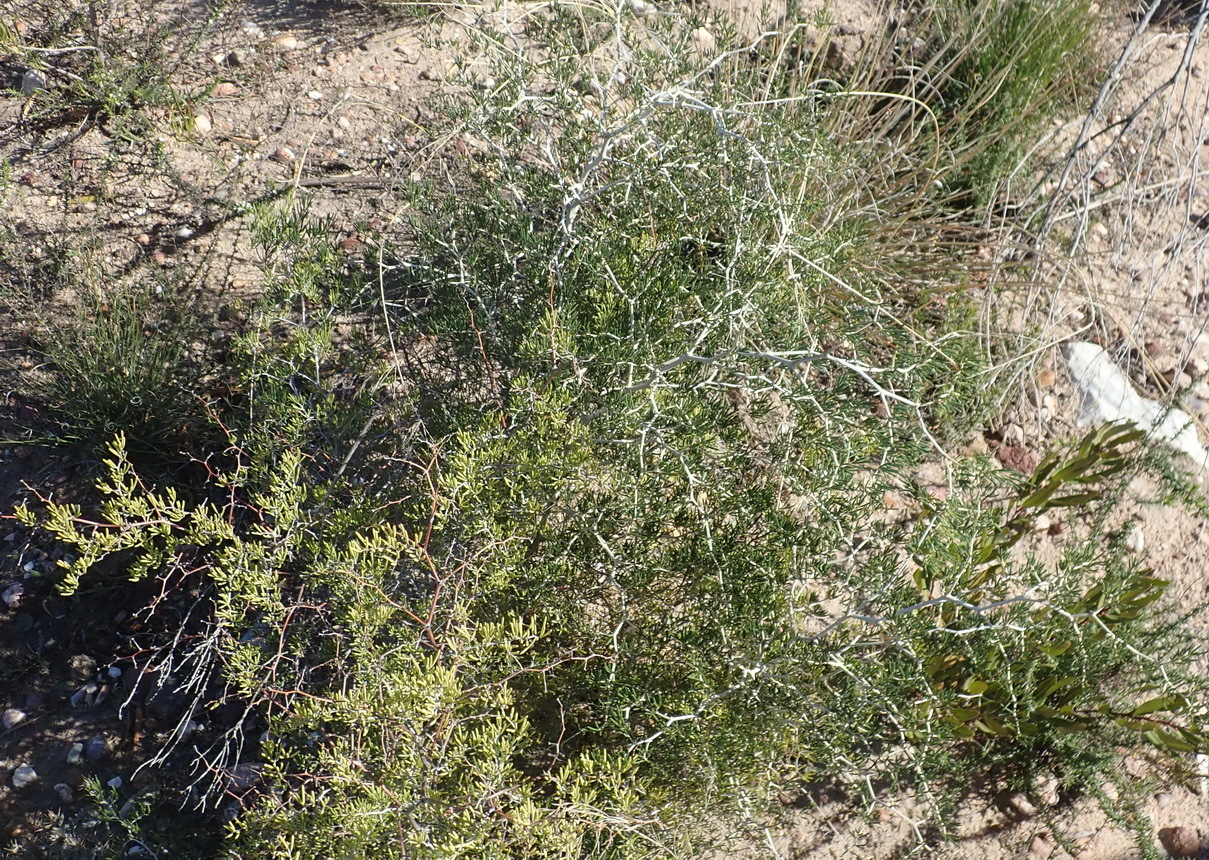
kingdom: Plantae
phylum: Tracheophyta
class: Liliopsida
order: Asparagales
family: Asparagaceae
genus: Asparagus
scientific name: Asparagus lignosus
